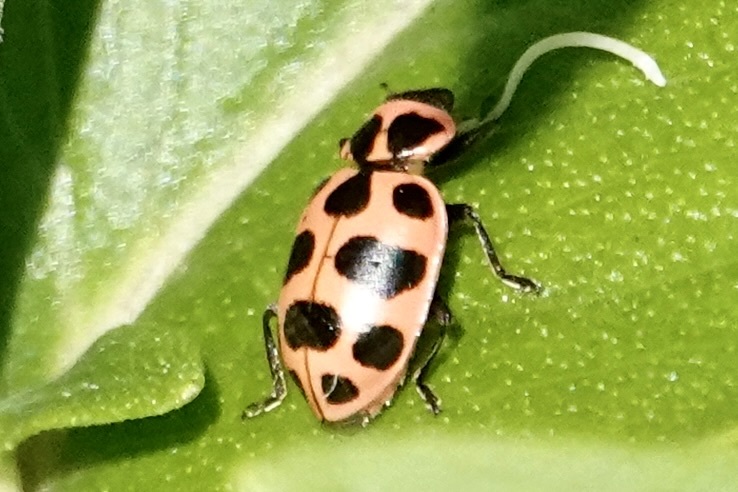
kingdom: Animalia
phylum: Arthropoda
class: Insecta
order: Coleoptera
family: Coccinellidae
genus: Coleomegilla
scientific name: Coleomegilla maculata
